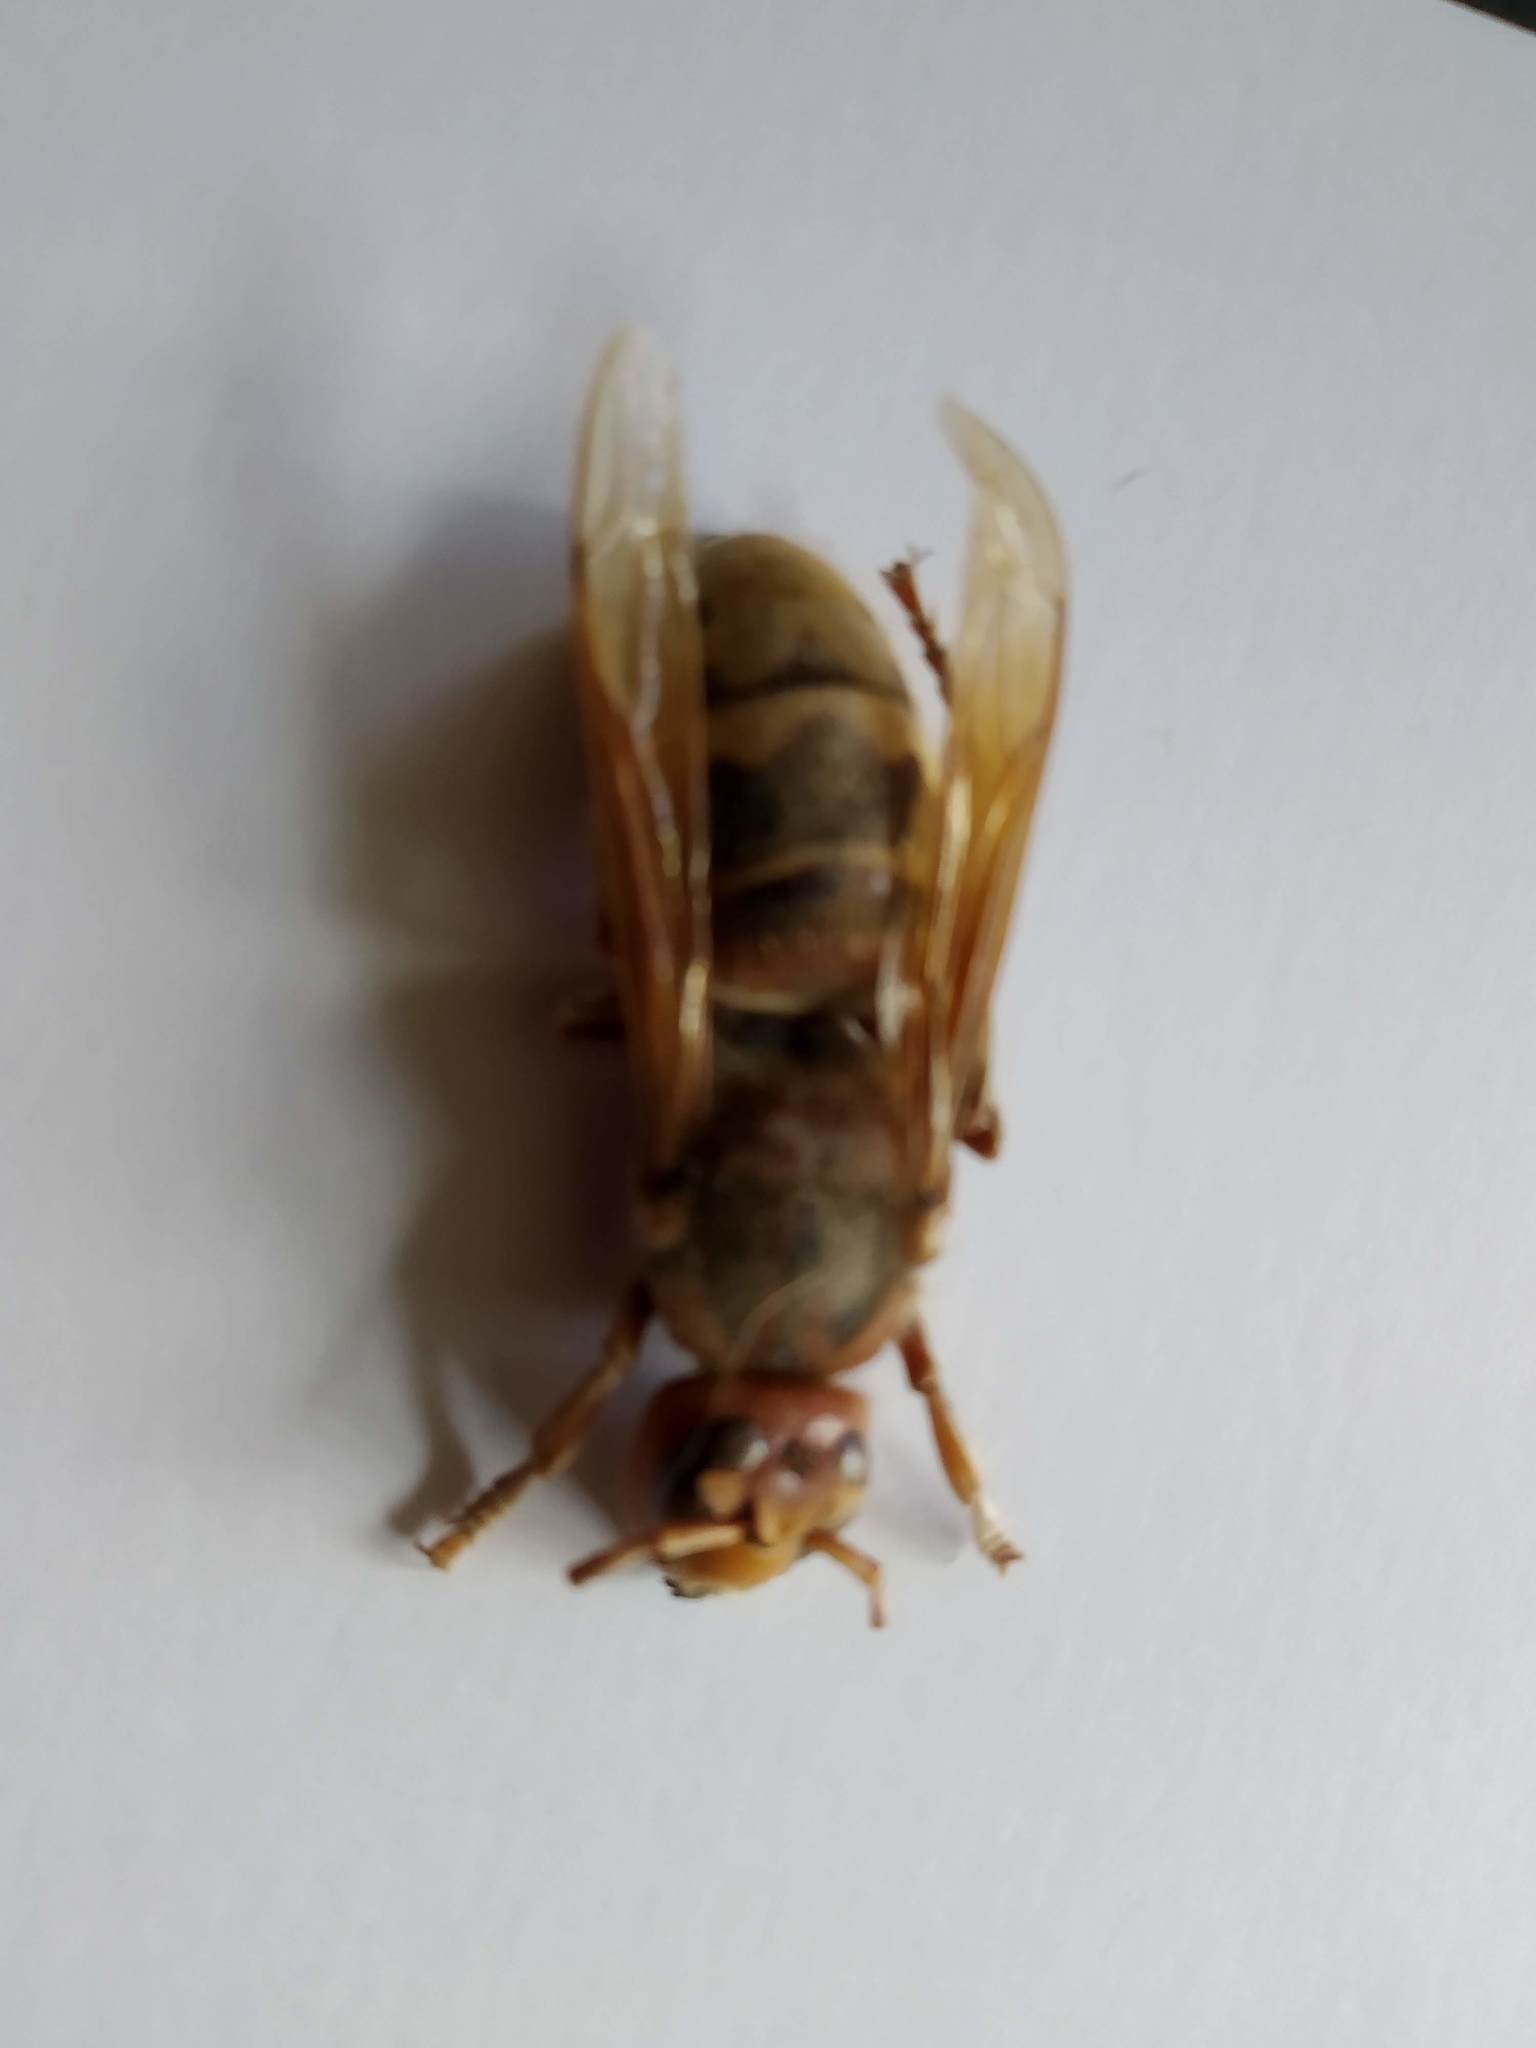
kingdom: Animalia
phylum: Arthropoda
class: Insecta
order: Hymenoptera
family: Vespidae
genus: Vespa
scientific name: Vespa crabro
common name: Hornet
